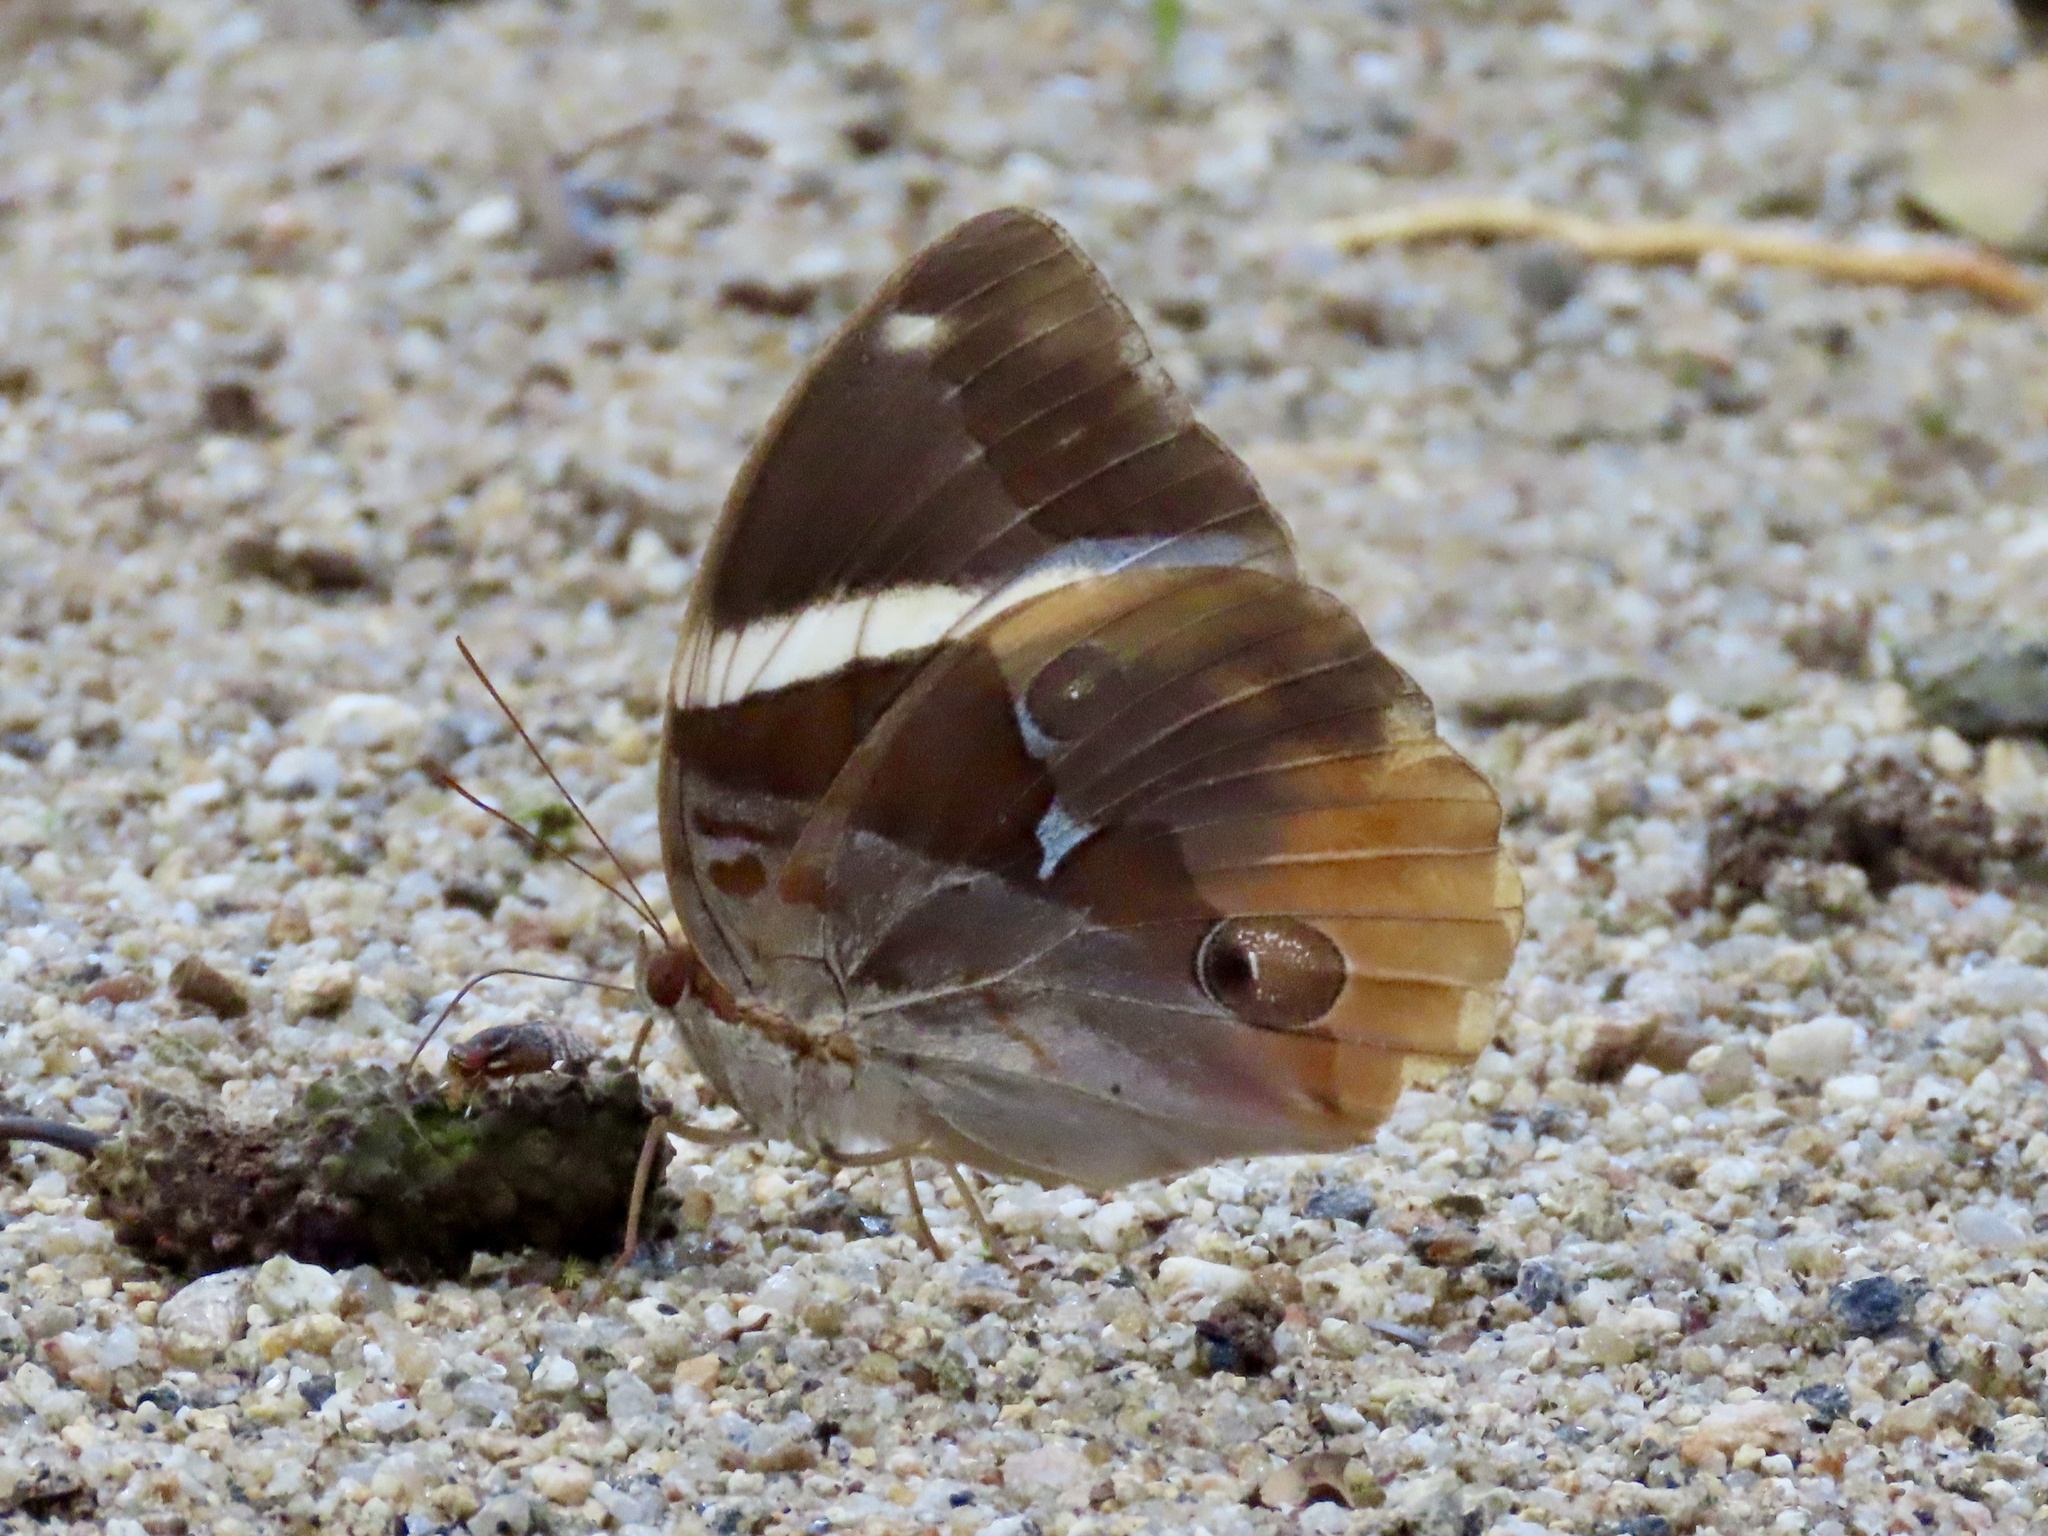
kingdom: Animalia
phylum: Arthropoda
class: Insecta
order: Lepidoptera
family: Nymphalidae
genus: Thauria
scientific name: Thauria aliris
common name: Tufted jungle king
